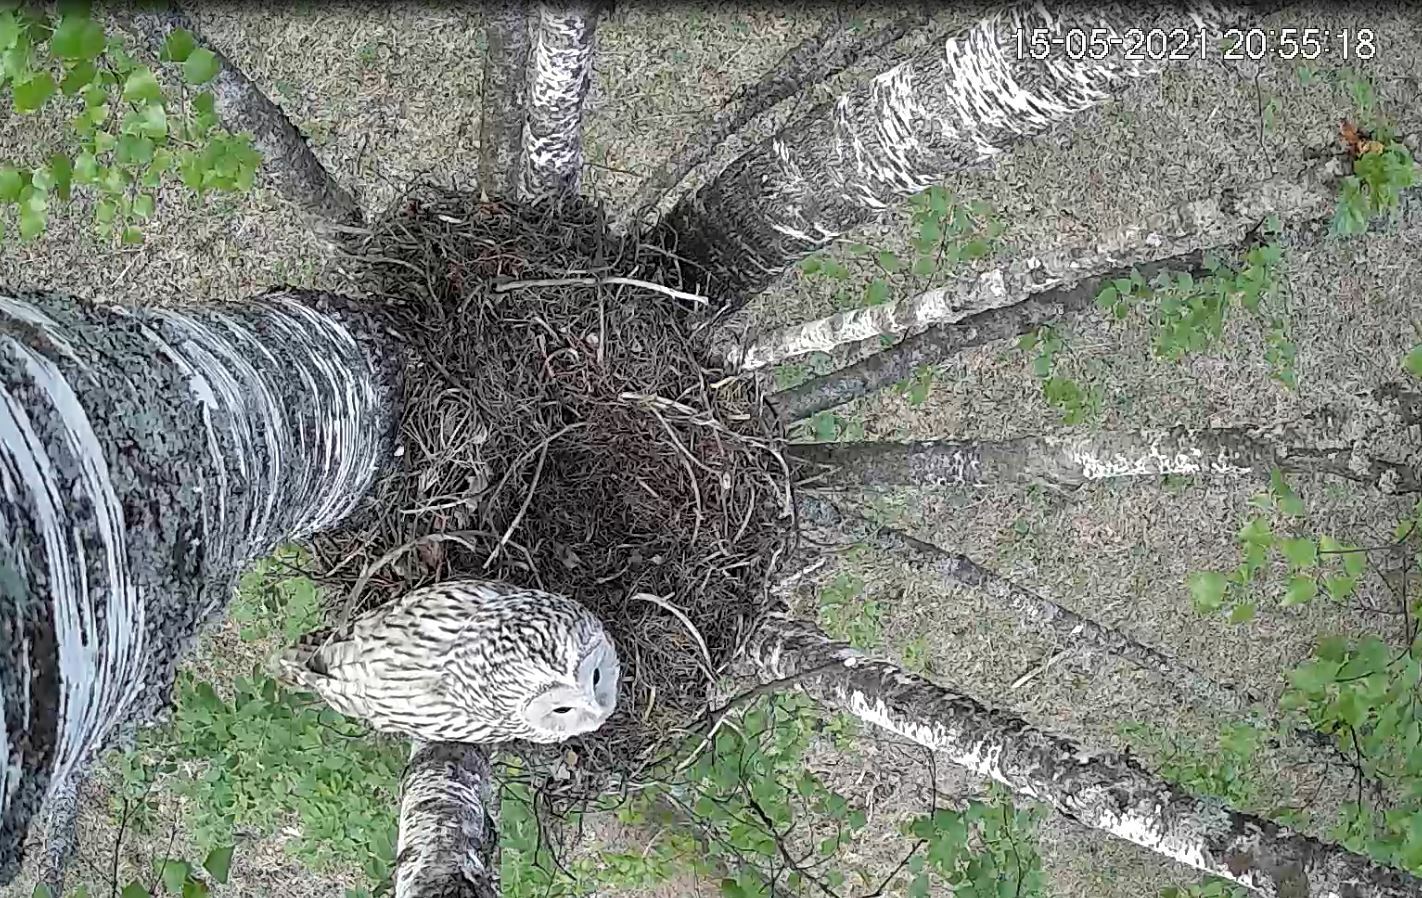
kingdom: Animalia
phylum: Chordata
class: Aves
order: Strigiformes
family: Strigidae
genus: Strix
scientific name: Strix uralensis
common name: Ural owl
